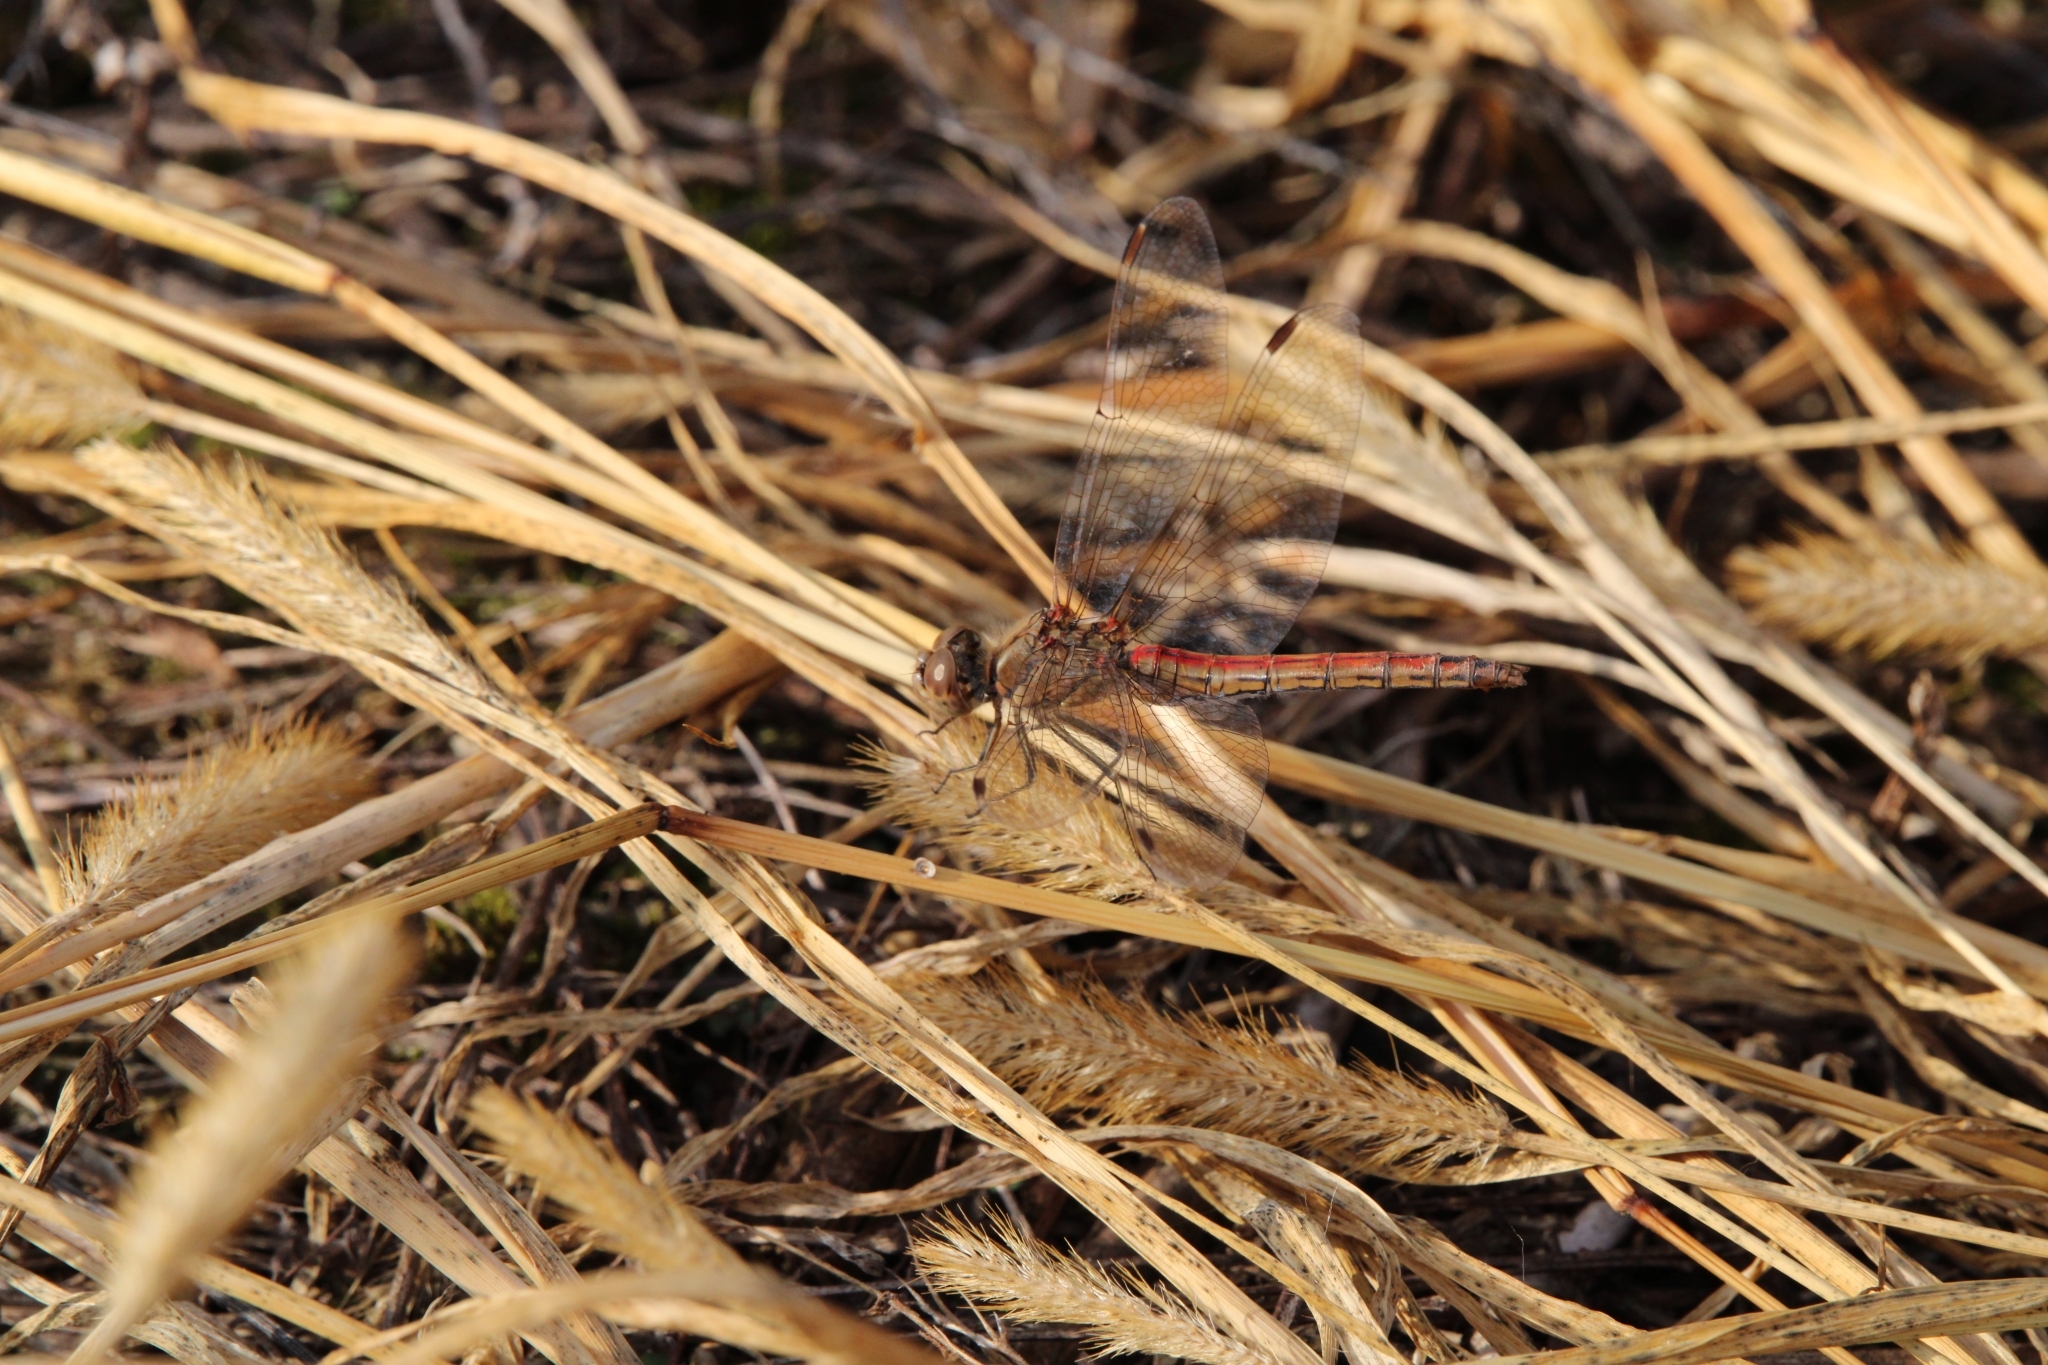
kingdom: Animalia
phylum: Arthropoda
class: Insecta
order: Odonata
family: Libellulidae
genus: Sympetrum
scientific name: Sympetrum vulgatum
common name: Vagrant darter
